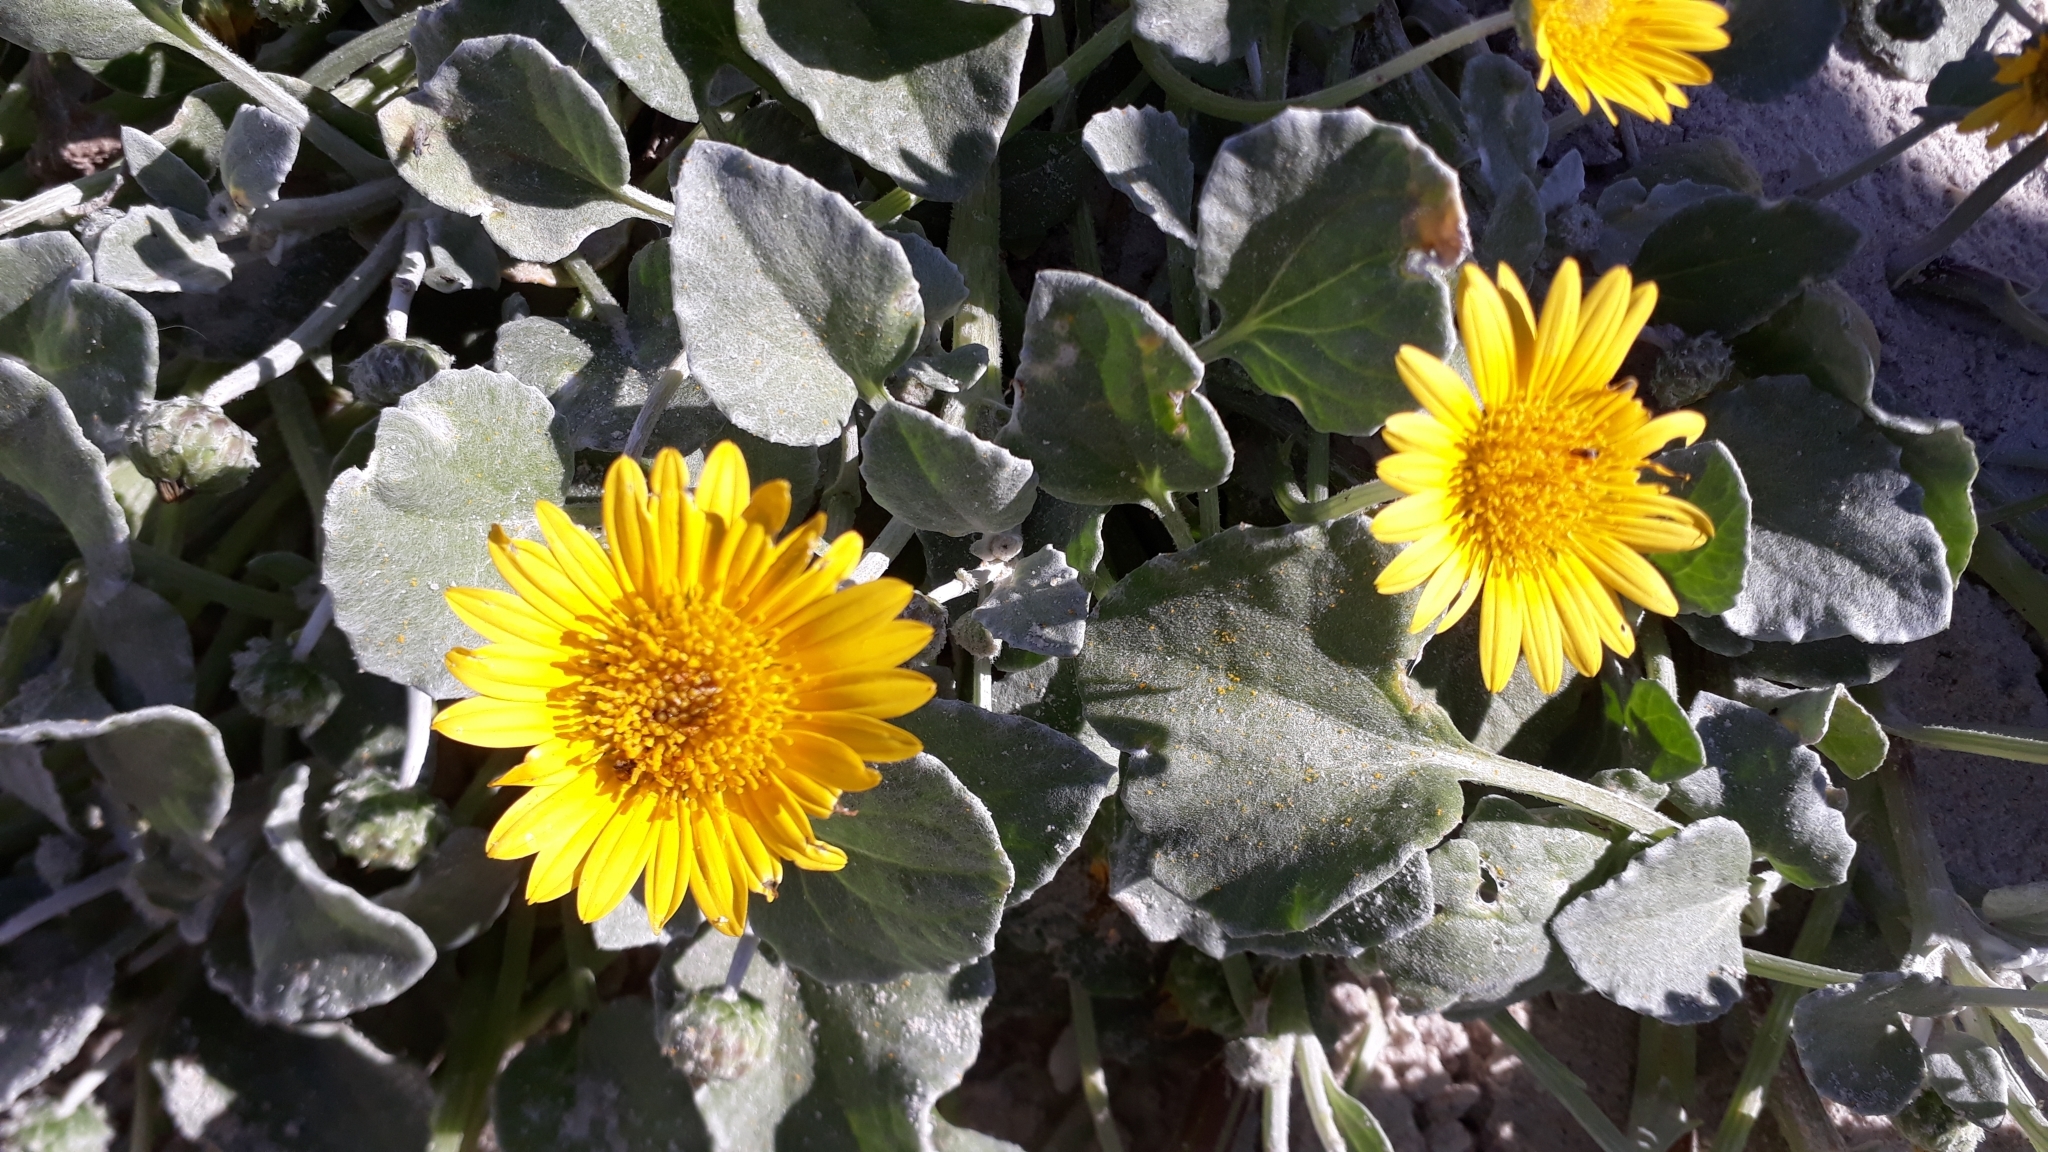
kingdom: Plantae
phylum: Tracheophyta
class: Magnoliopsida
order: Asterales
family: Asteraceae
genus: Arctotheca
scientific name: Arctotheca populifolia
